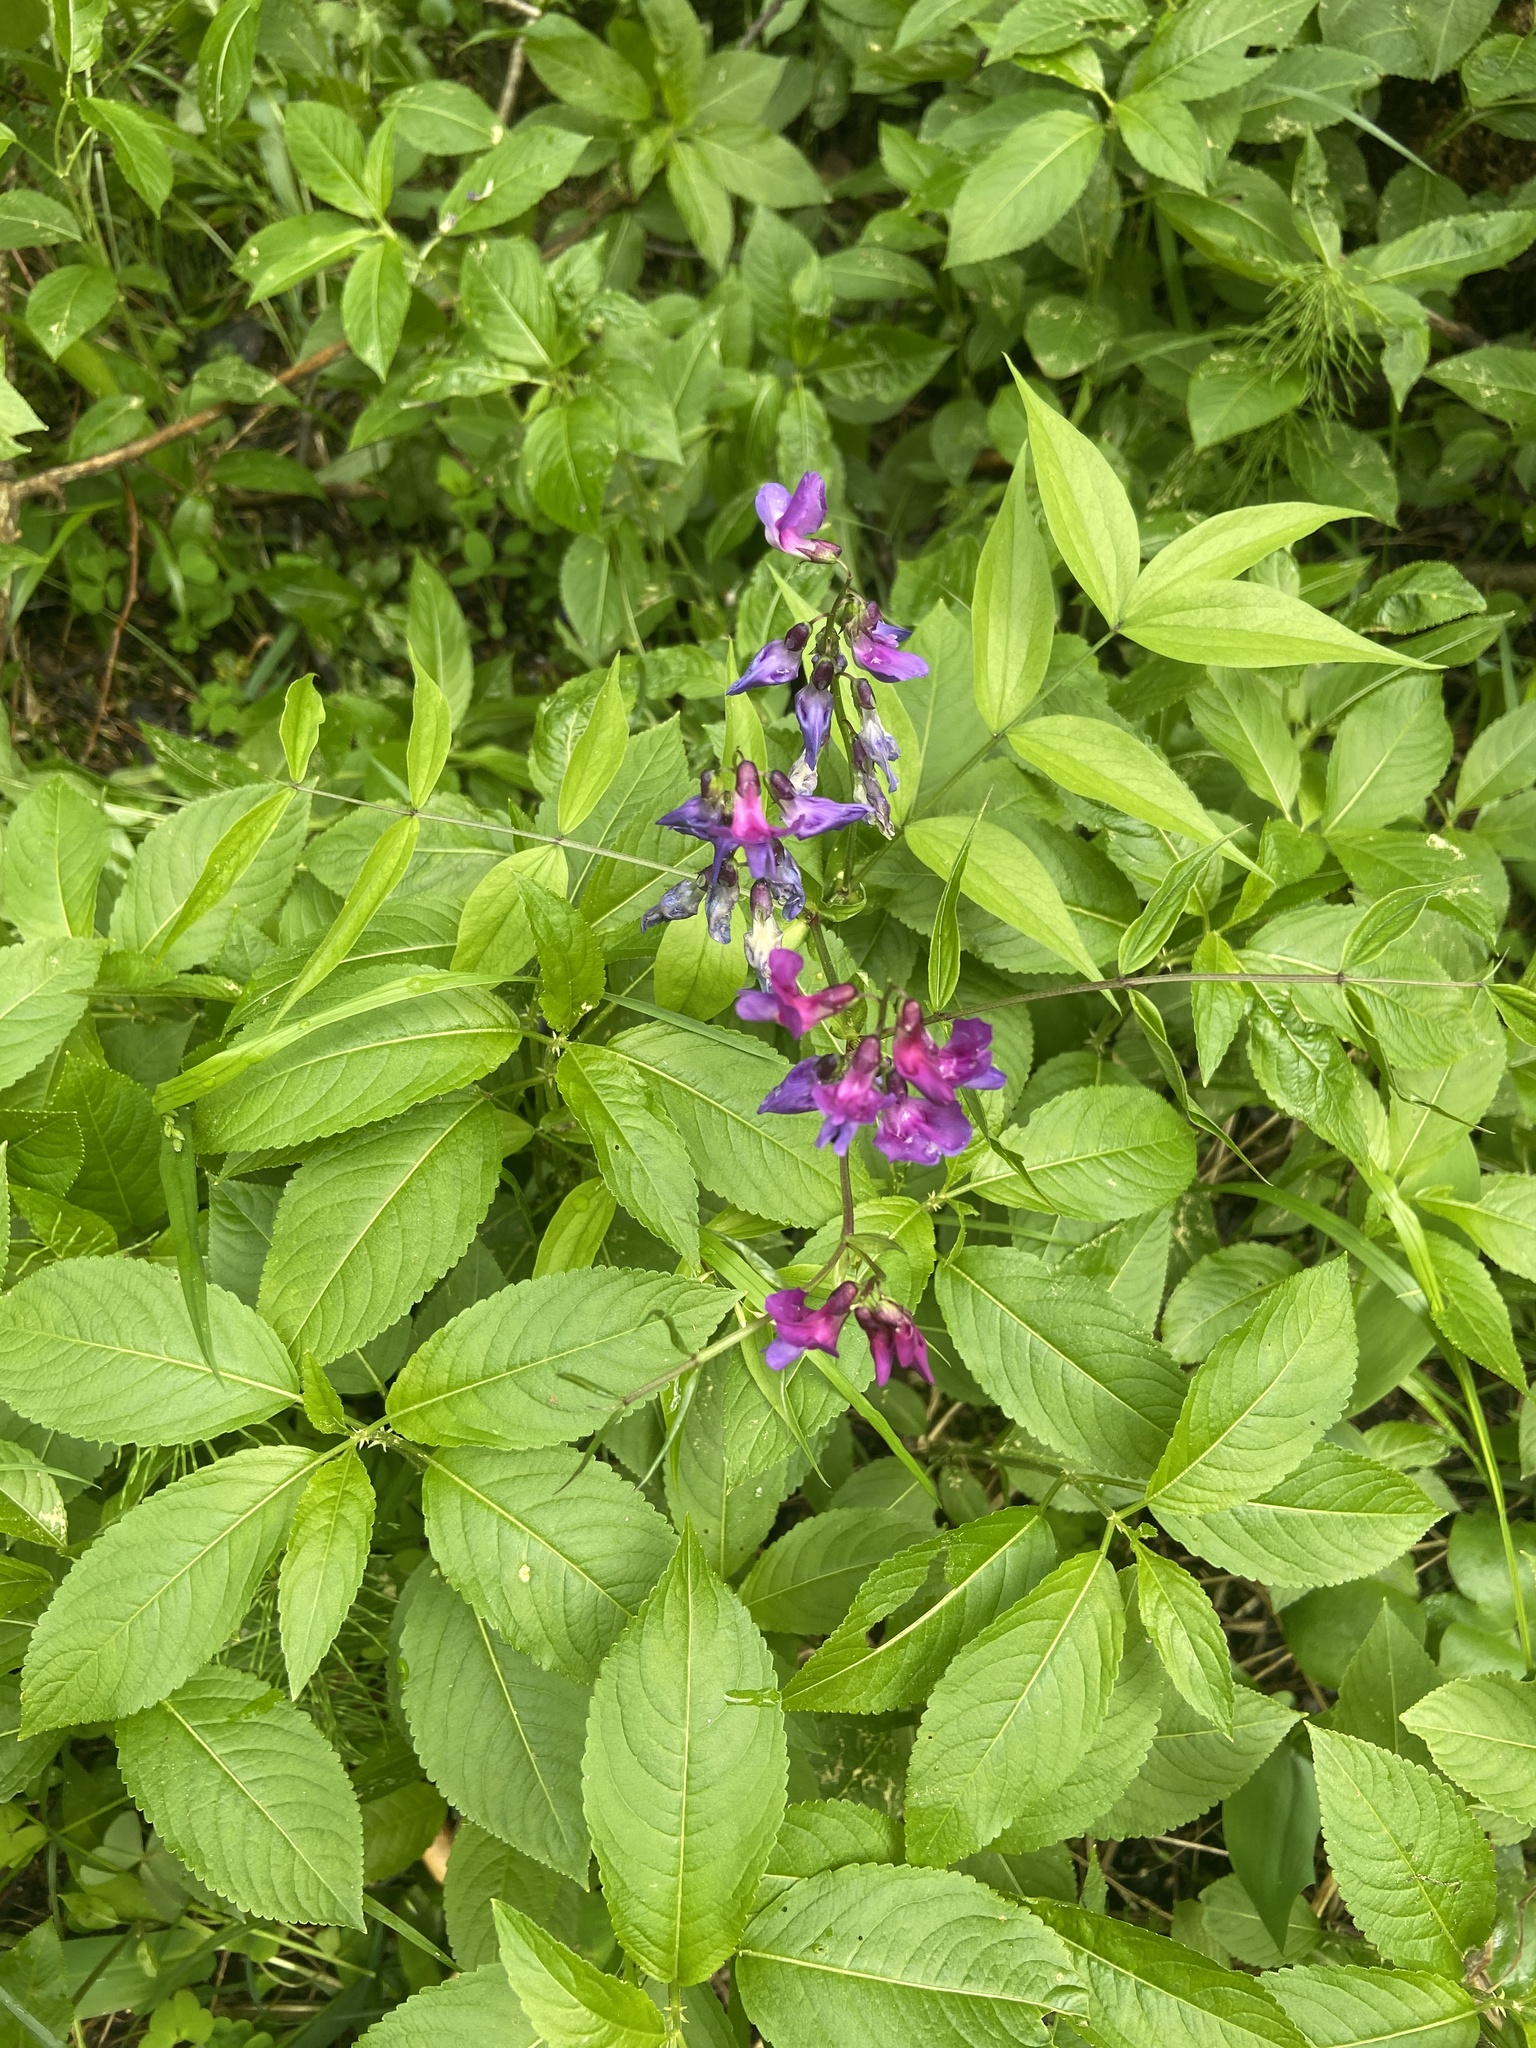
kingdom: Plantae
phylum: Tracheophyta
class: Magnoliopsida
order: Fabales
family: Fabaceae
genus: Lathyrus
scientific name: Lathyrus vernus
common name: Spring pea
